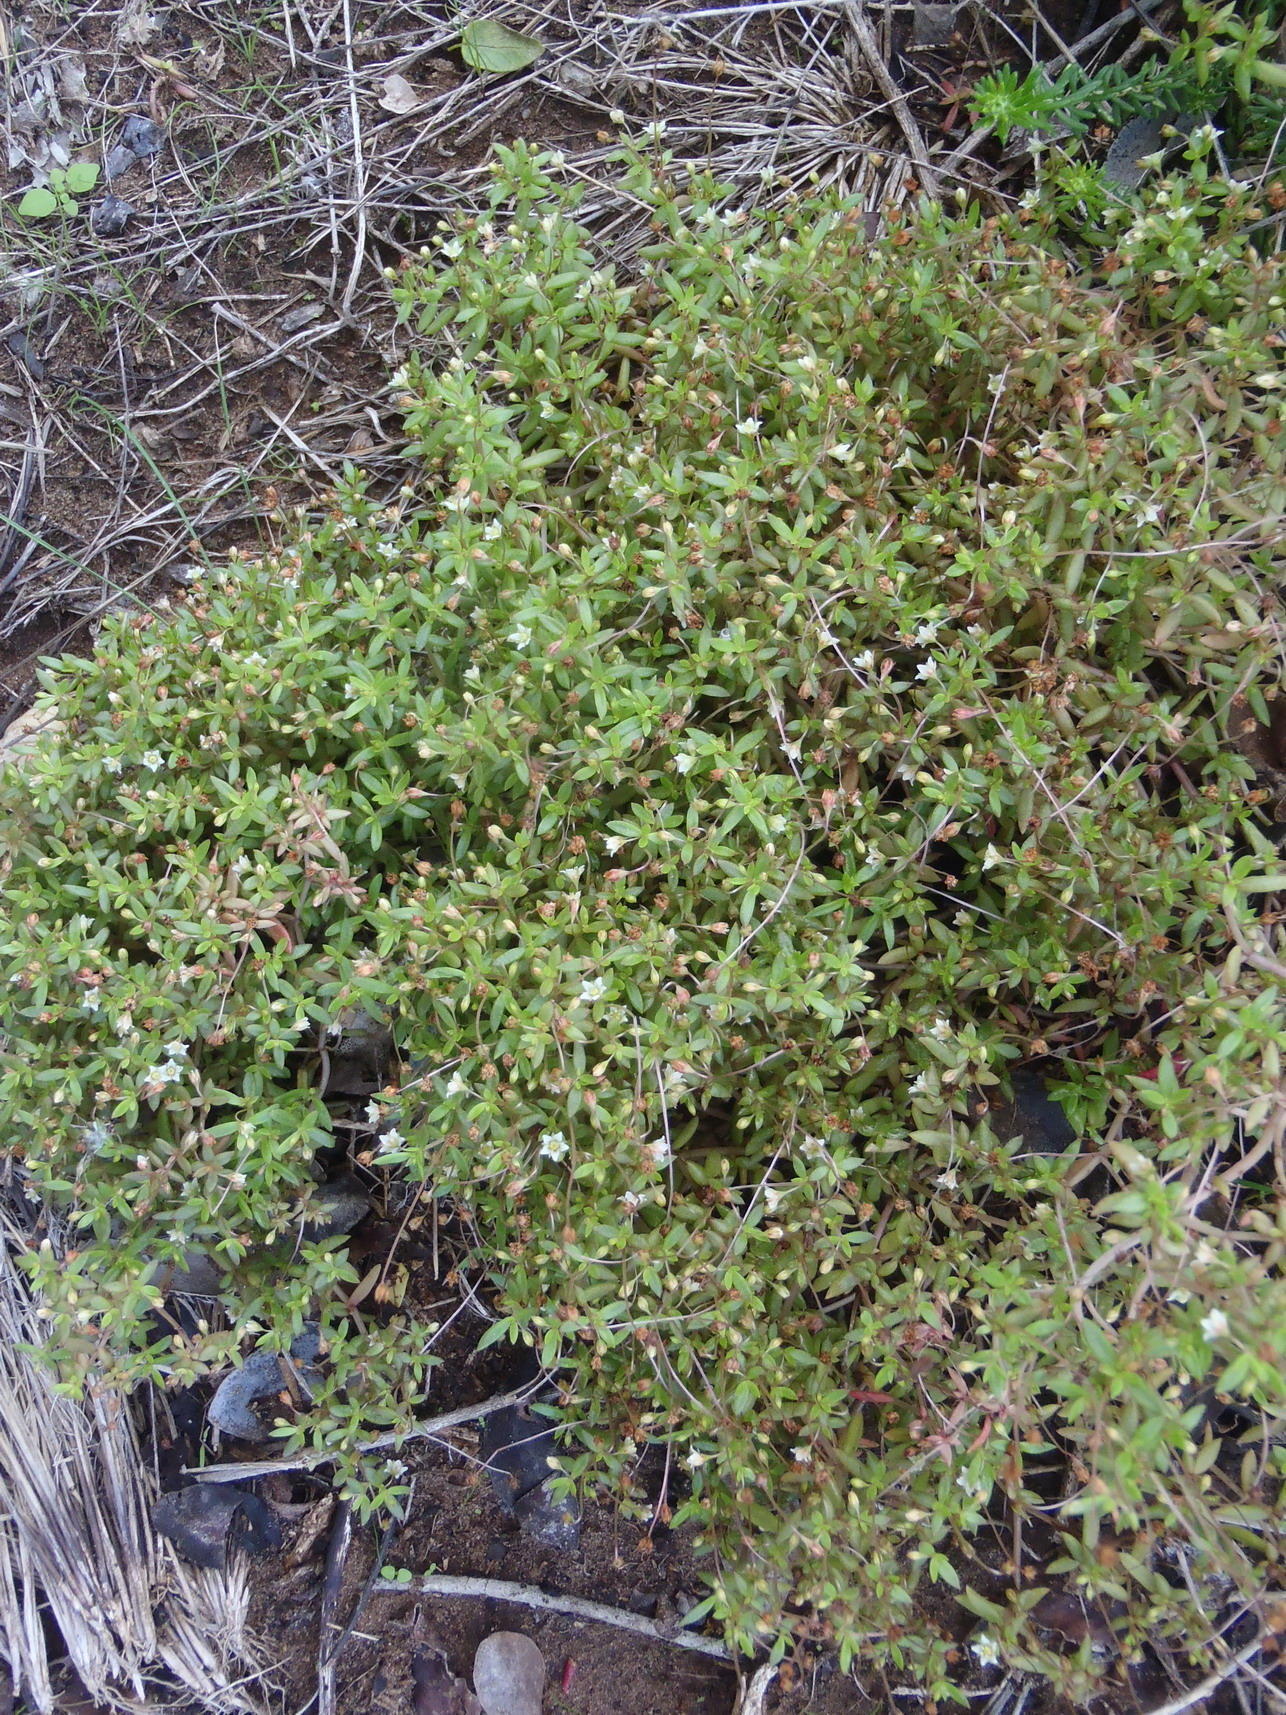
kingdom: Plantae
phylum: Tracheophyta
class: Magnoliopsida
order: Saxifragales
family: Crassulaceae
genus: Crassula
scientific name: Crassula expansa
